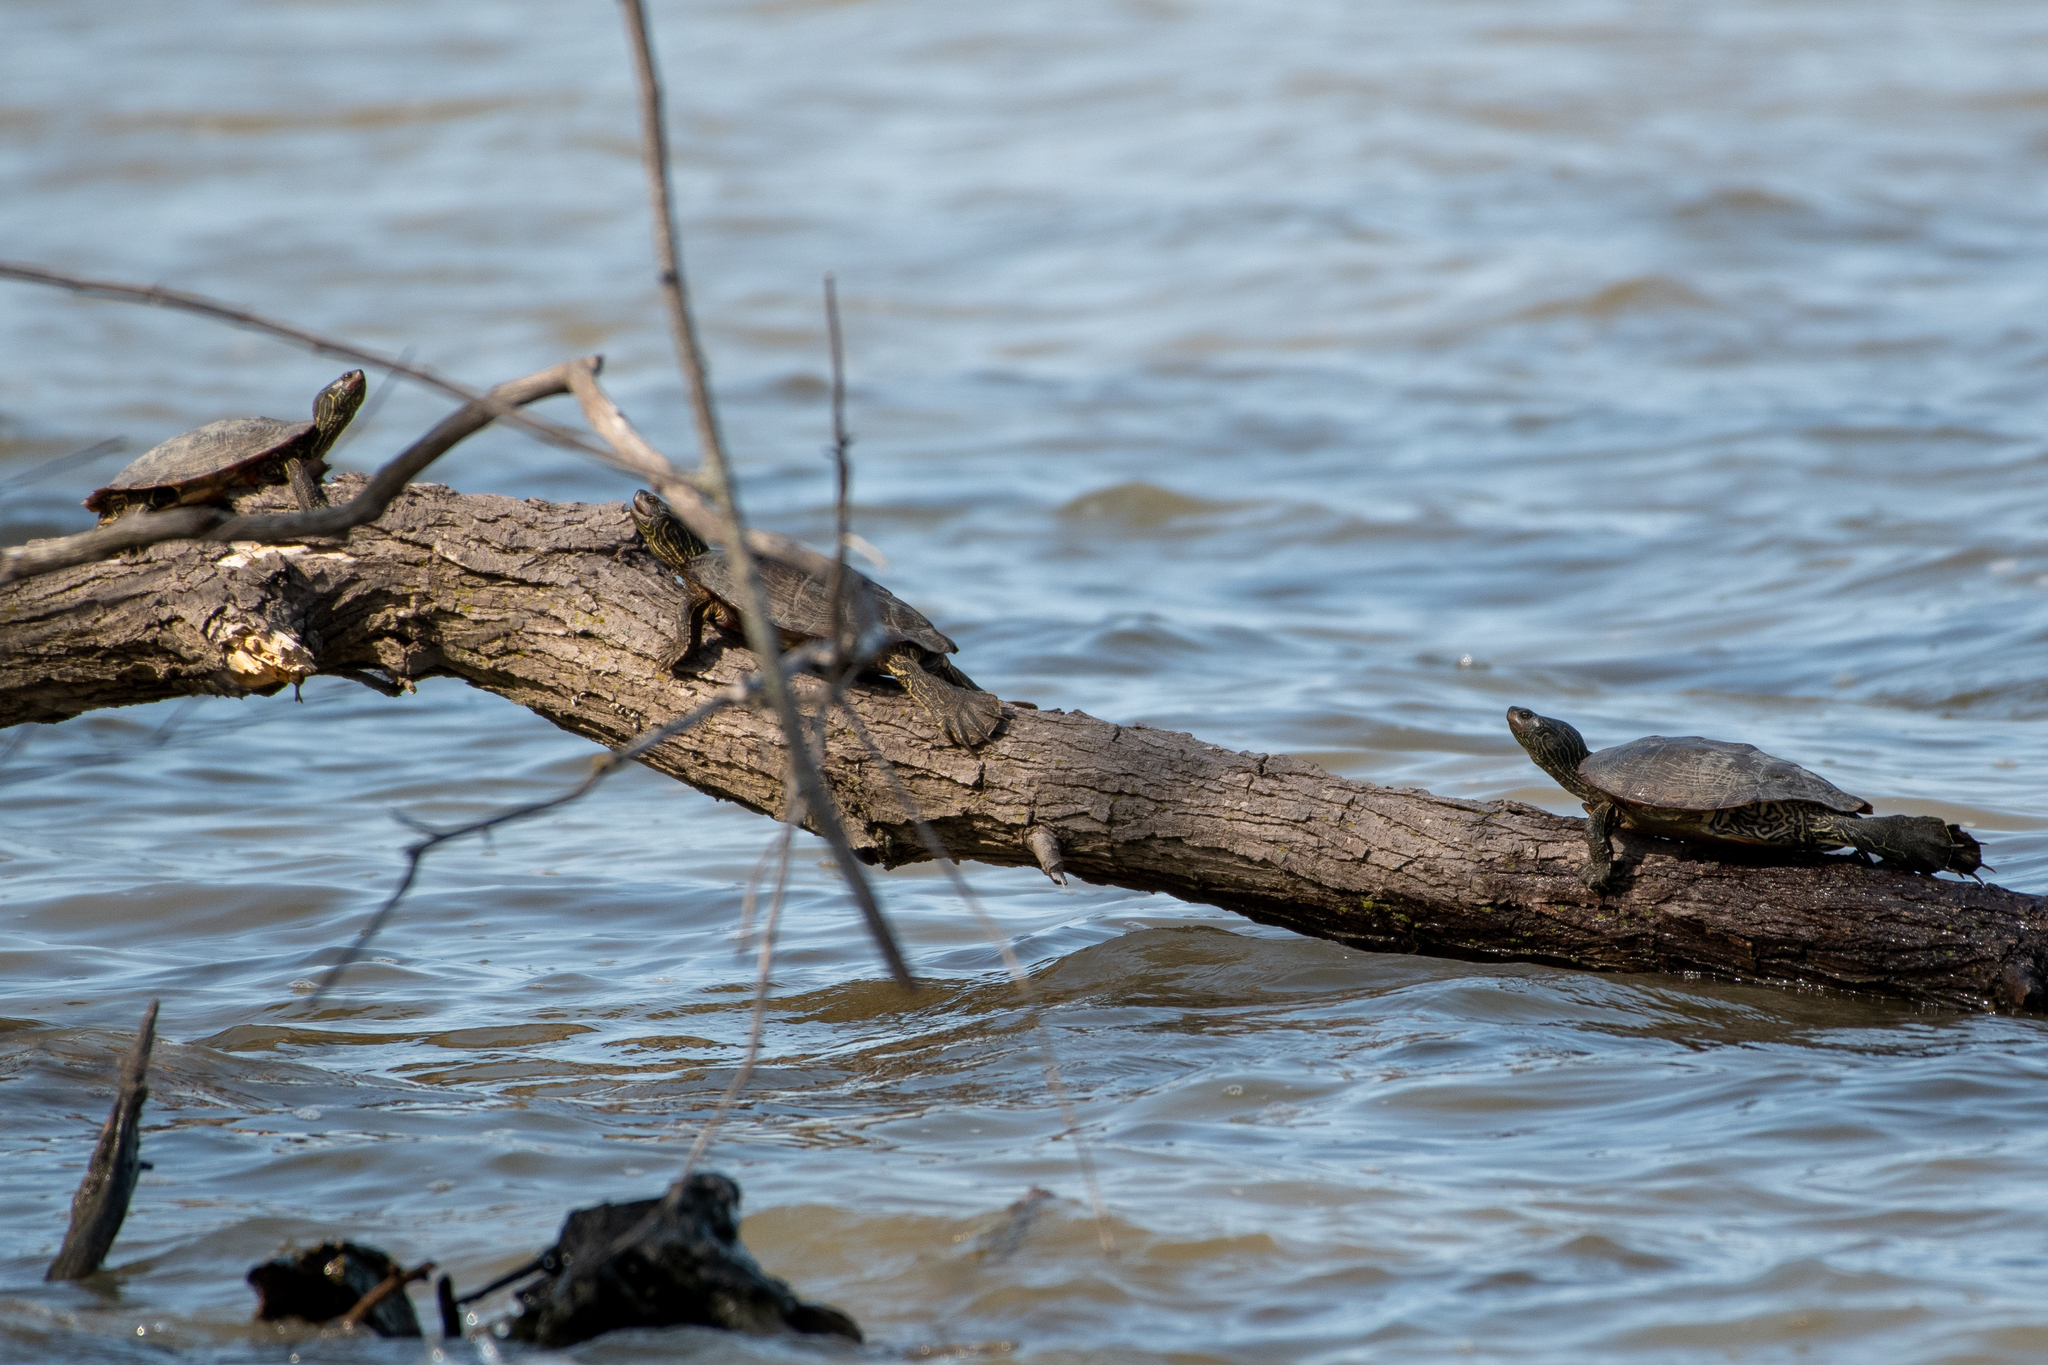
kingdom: Animalia
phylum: Chordata
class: Testudines
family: Emydidae
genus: Graptemys
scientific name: Graptemys geographica
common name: Common map turtle
